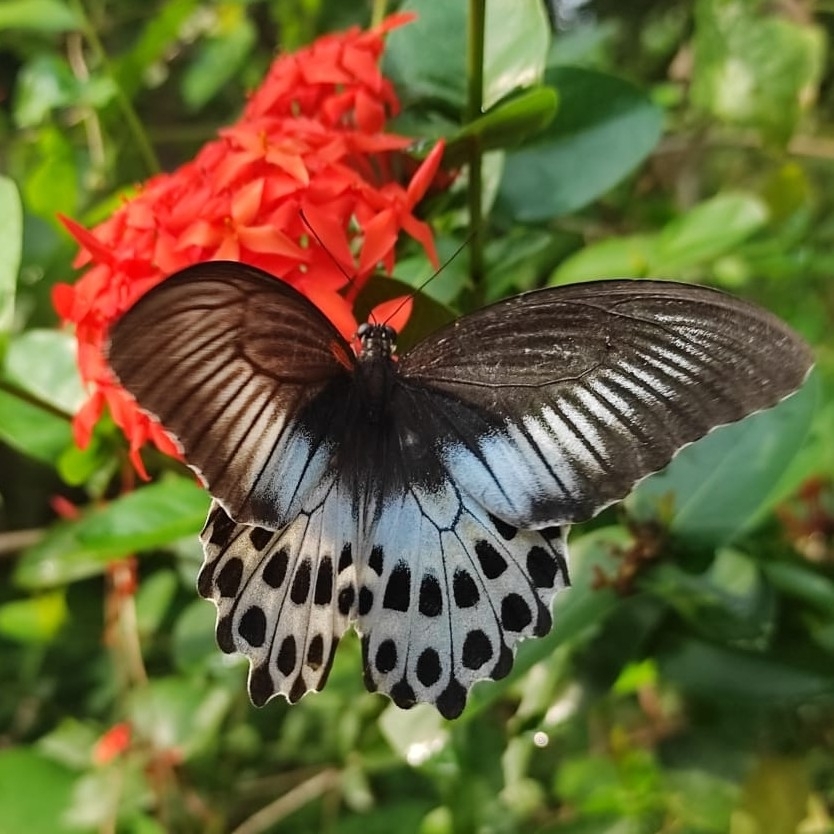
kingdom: Animalia
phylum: Arthropoda
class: Insecta
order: Lepidoptera
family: Papilionidae
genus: Papilio
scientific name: Papilio memnon
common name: Great mormon
